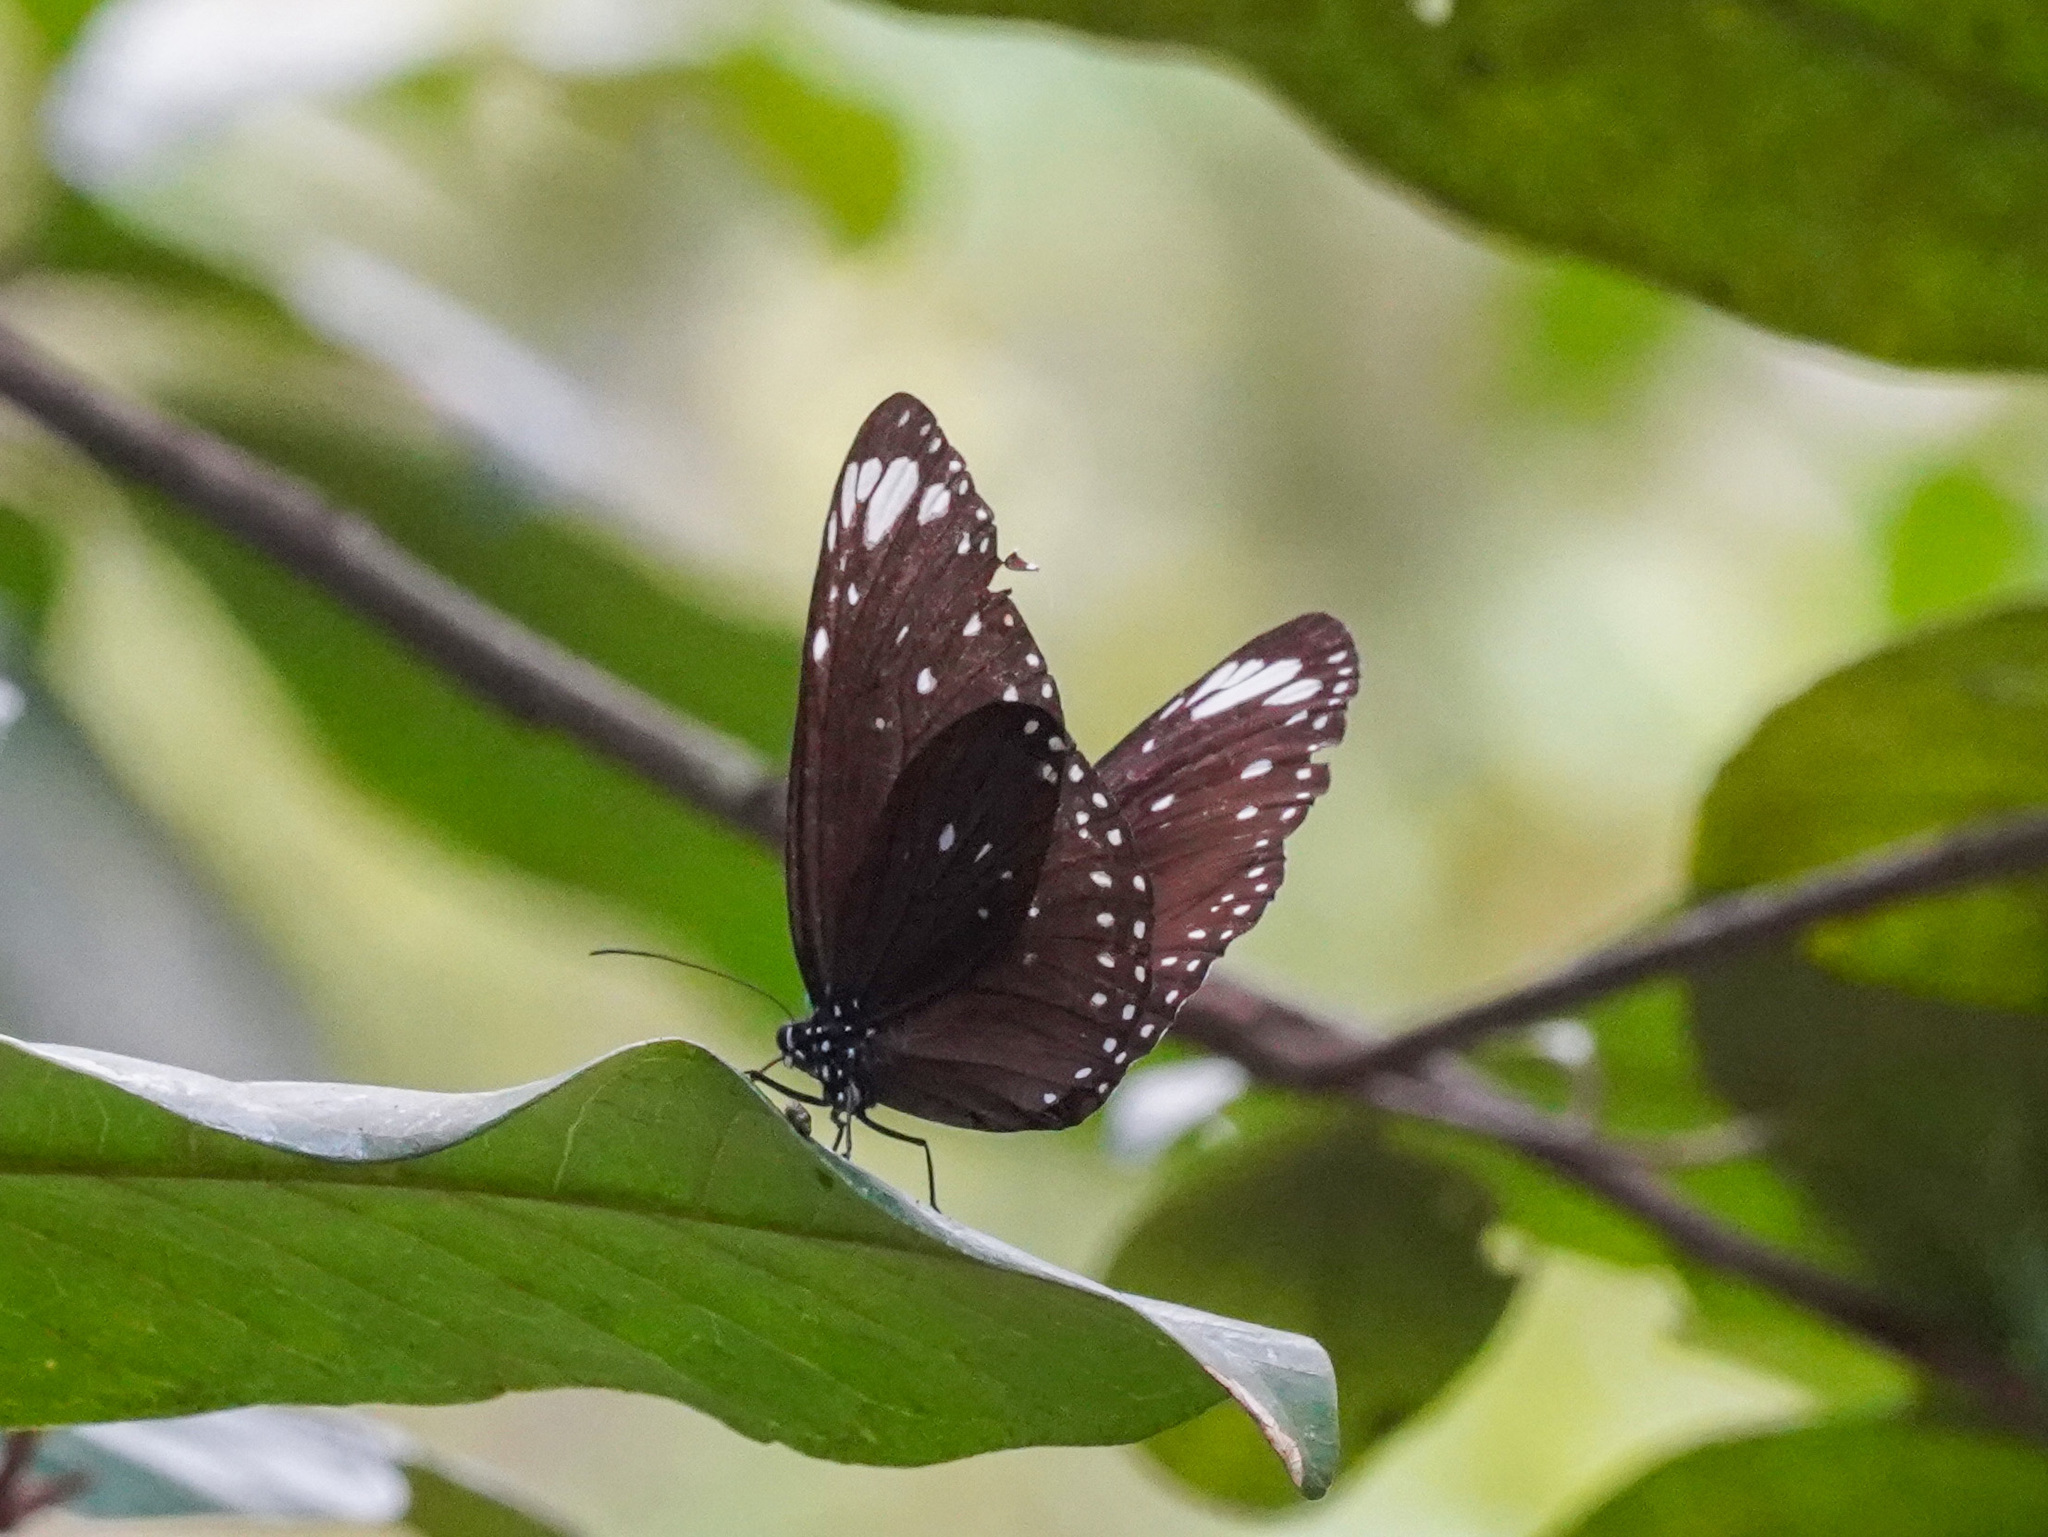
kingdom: Animalia
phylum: Arthropoda
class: Insecta
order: Lepidoptera
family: Nymphalidae
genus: Euploea
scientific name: Euploea crameri
